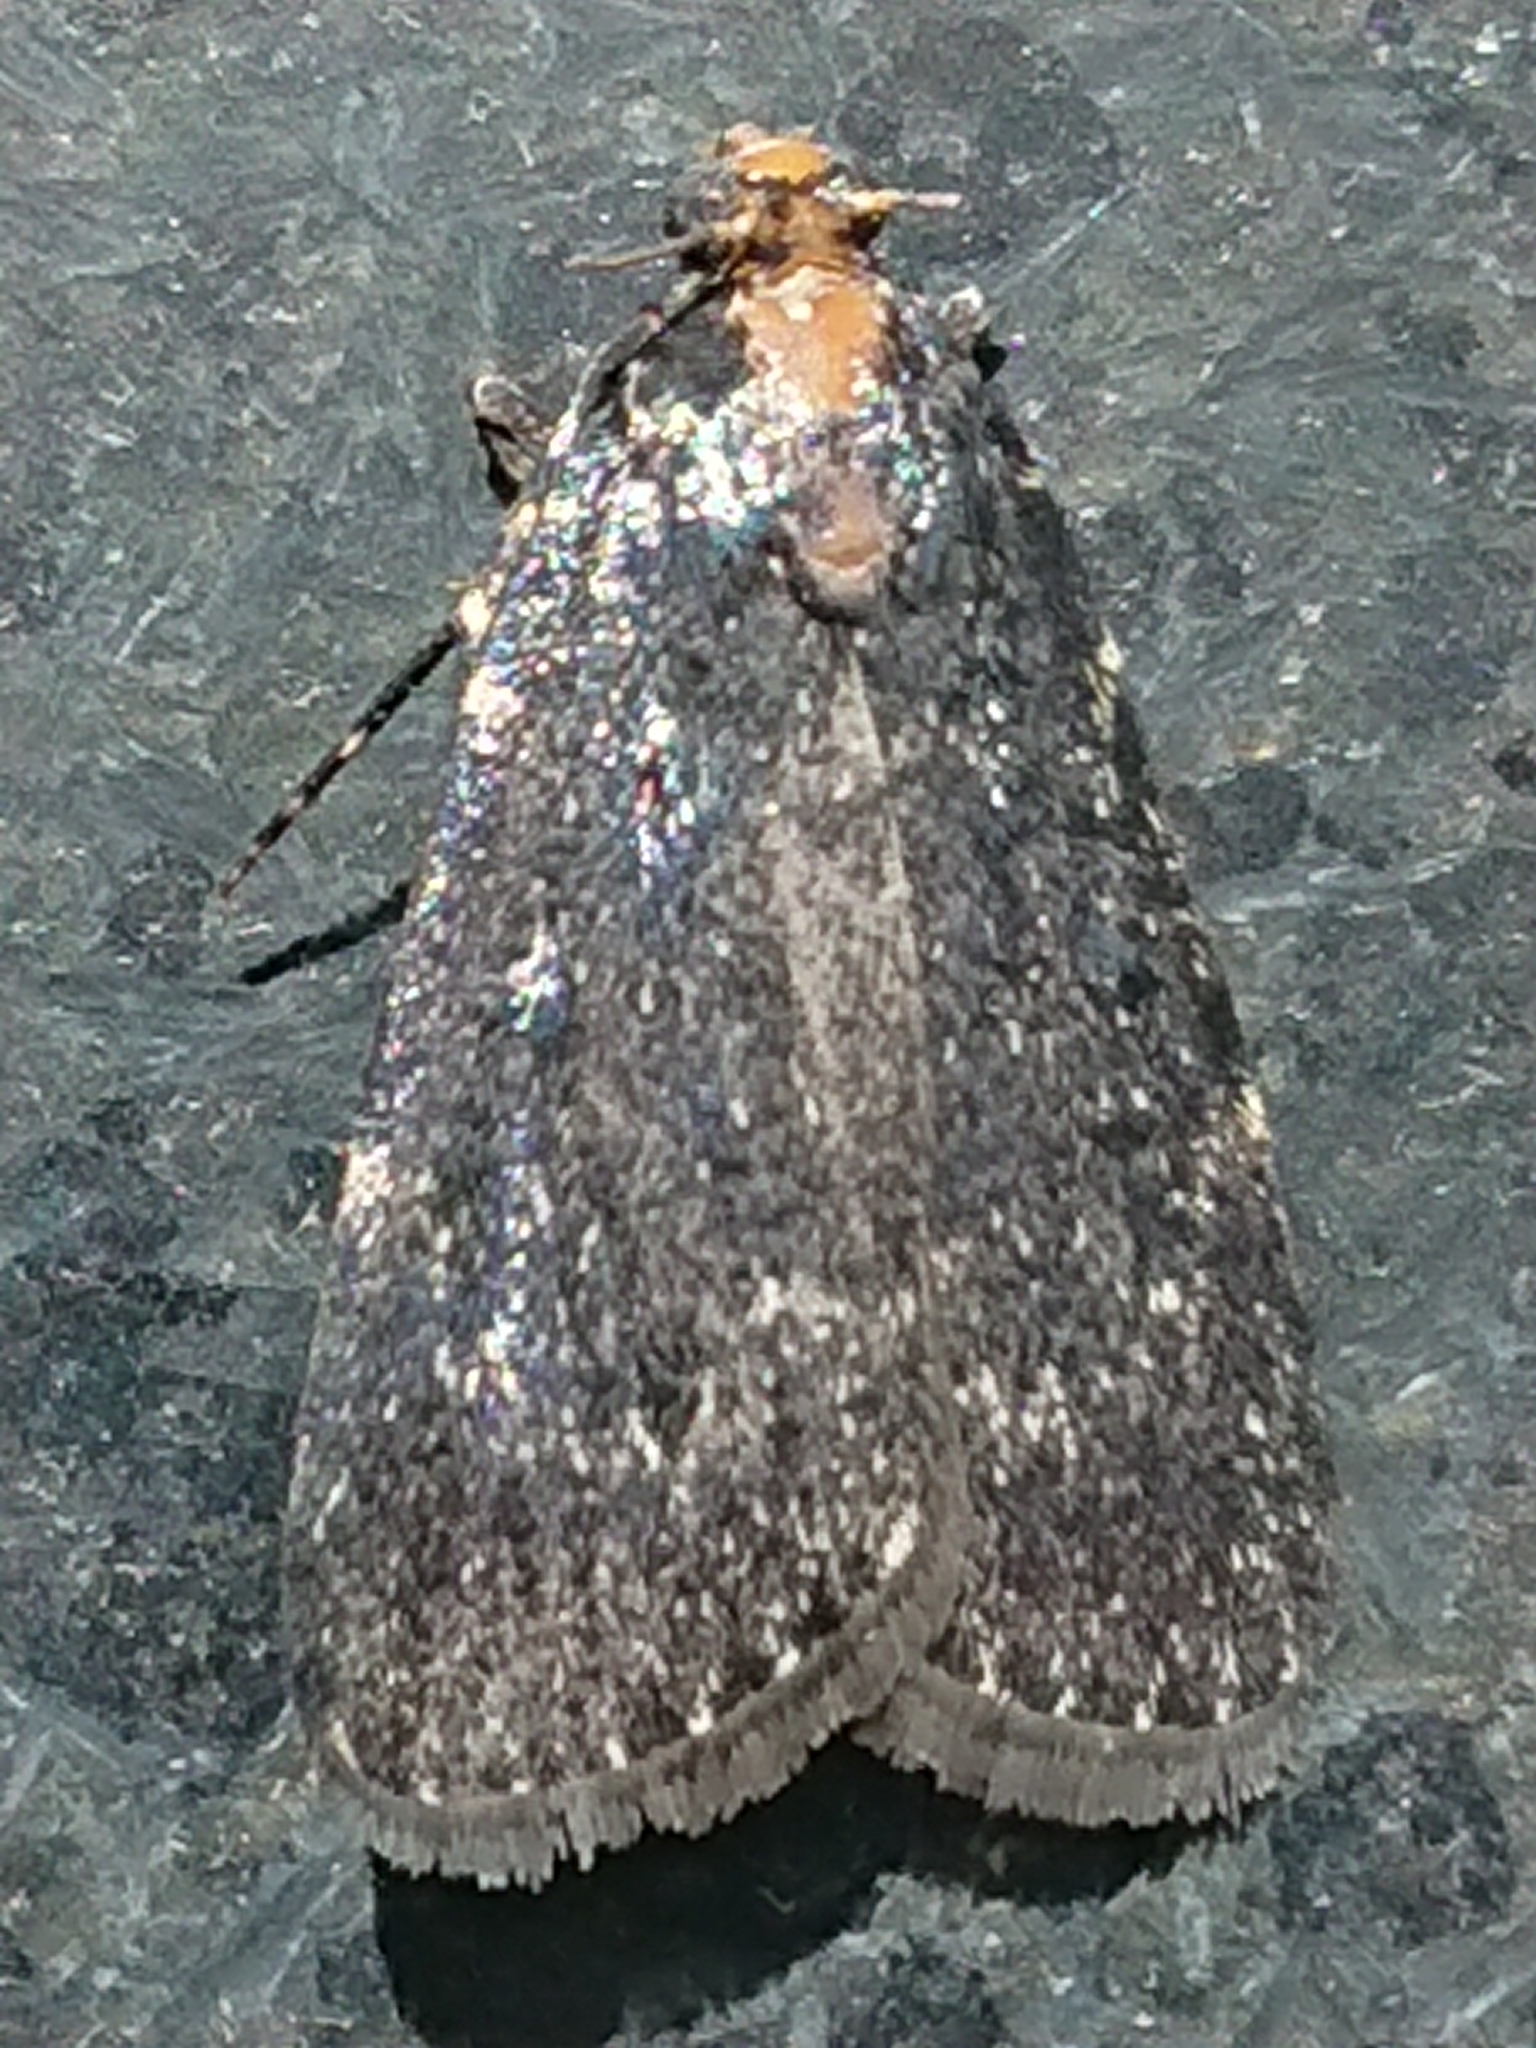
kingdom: Animalia
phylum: Arthropoda
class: Insecta
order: Lepidoptera
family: Pyralidae
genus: Stericta
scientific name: Stericta carbonalis
